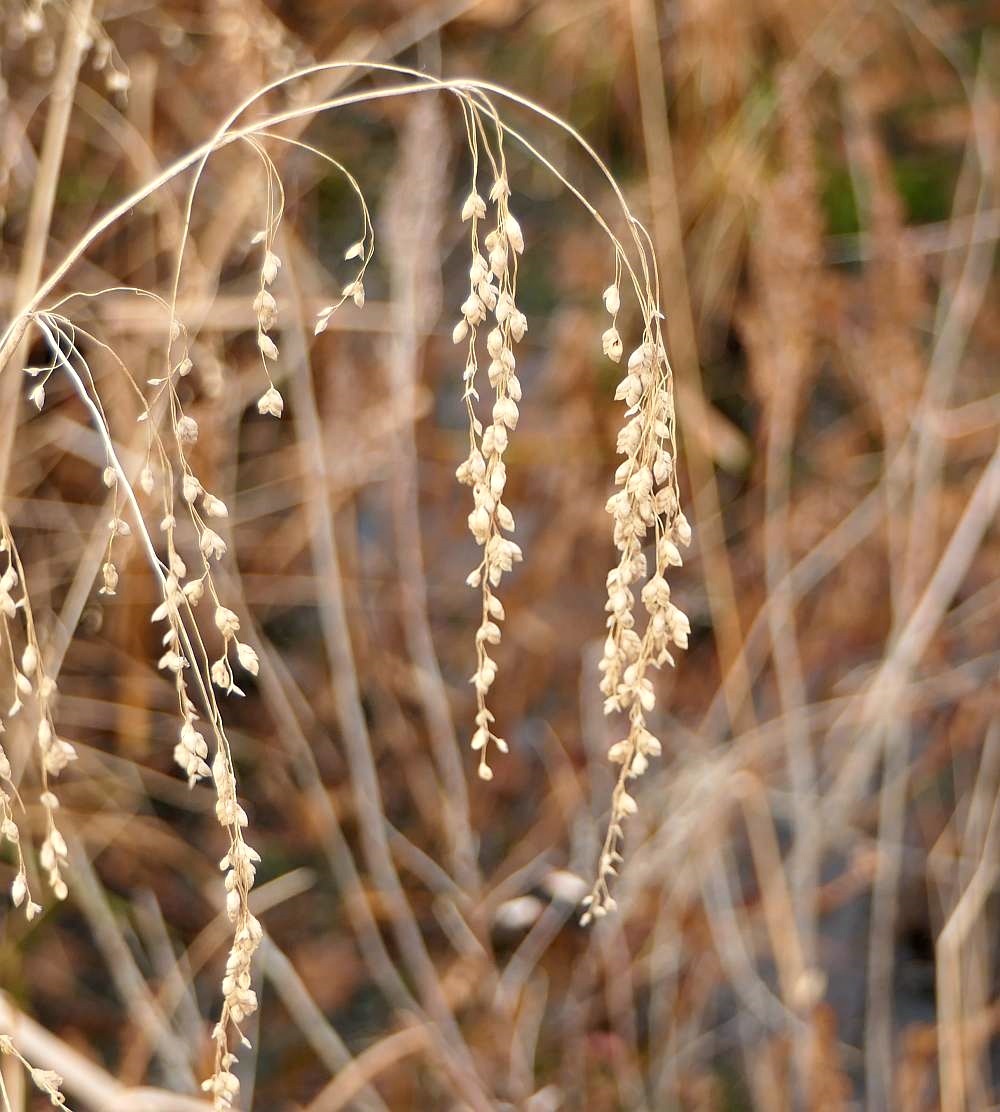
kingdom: Plantae
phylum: Tracheophyta
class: Liliopsida
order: Poales
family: Poaceae
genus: Glyceria
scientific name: Glyceria canadensis
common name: Canada mannagrass
